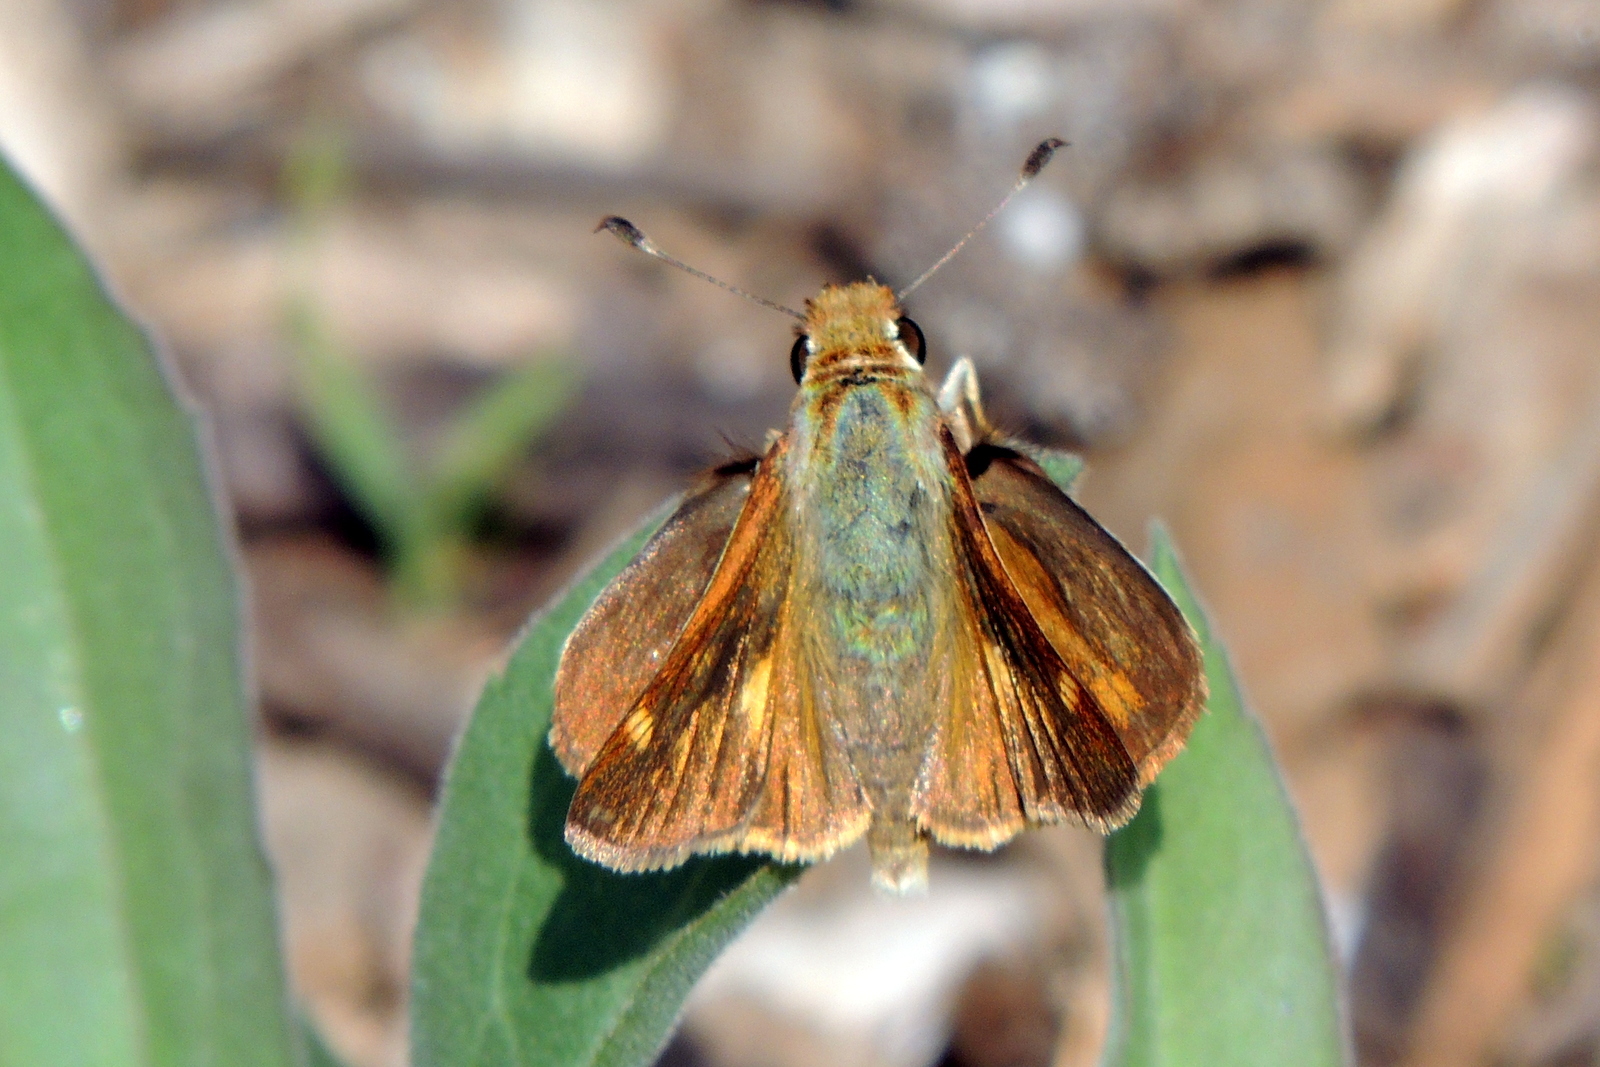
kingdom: Animalia
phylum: Arthropoda
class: Insecta
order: Lepidoptera
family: Hesperiidae
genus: Lon
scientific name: Lon melane
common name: Umber skipper
